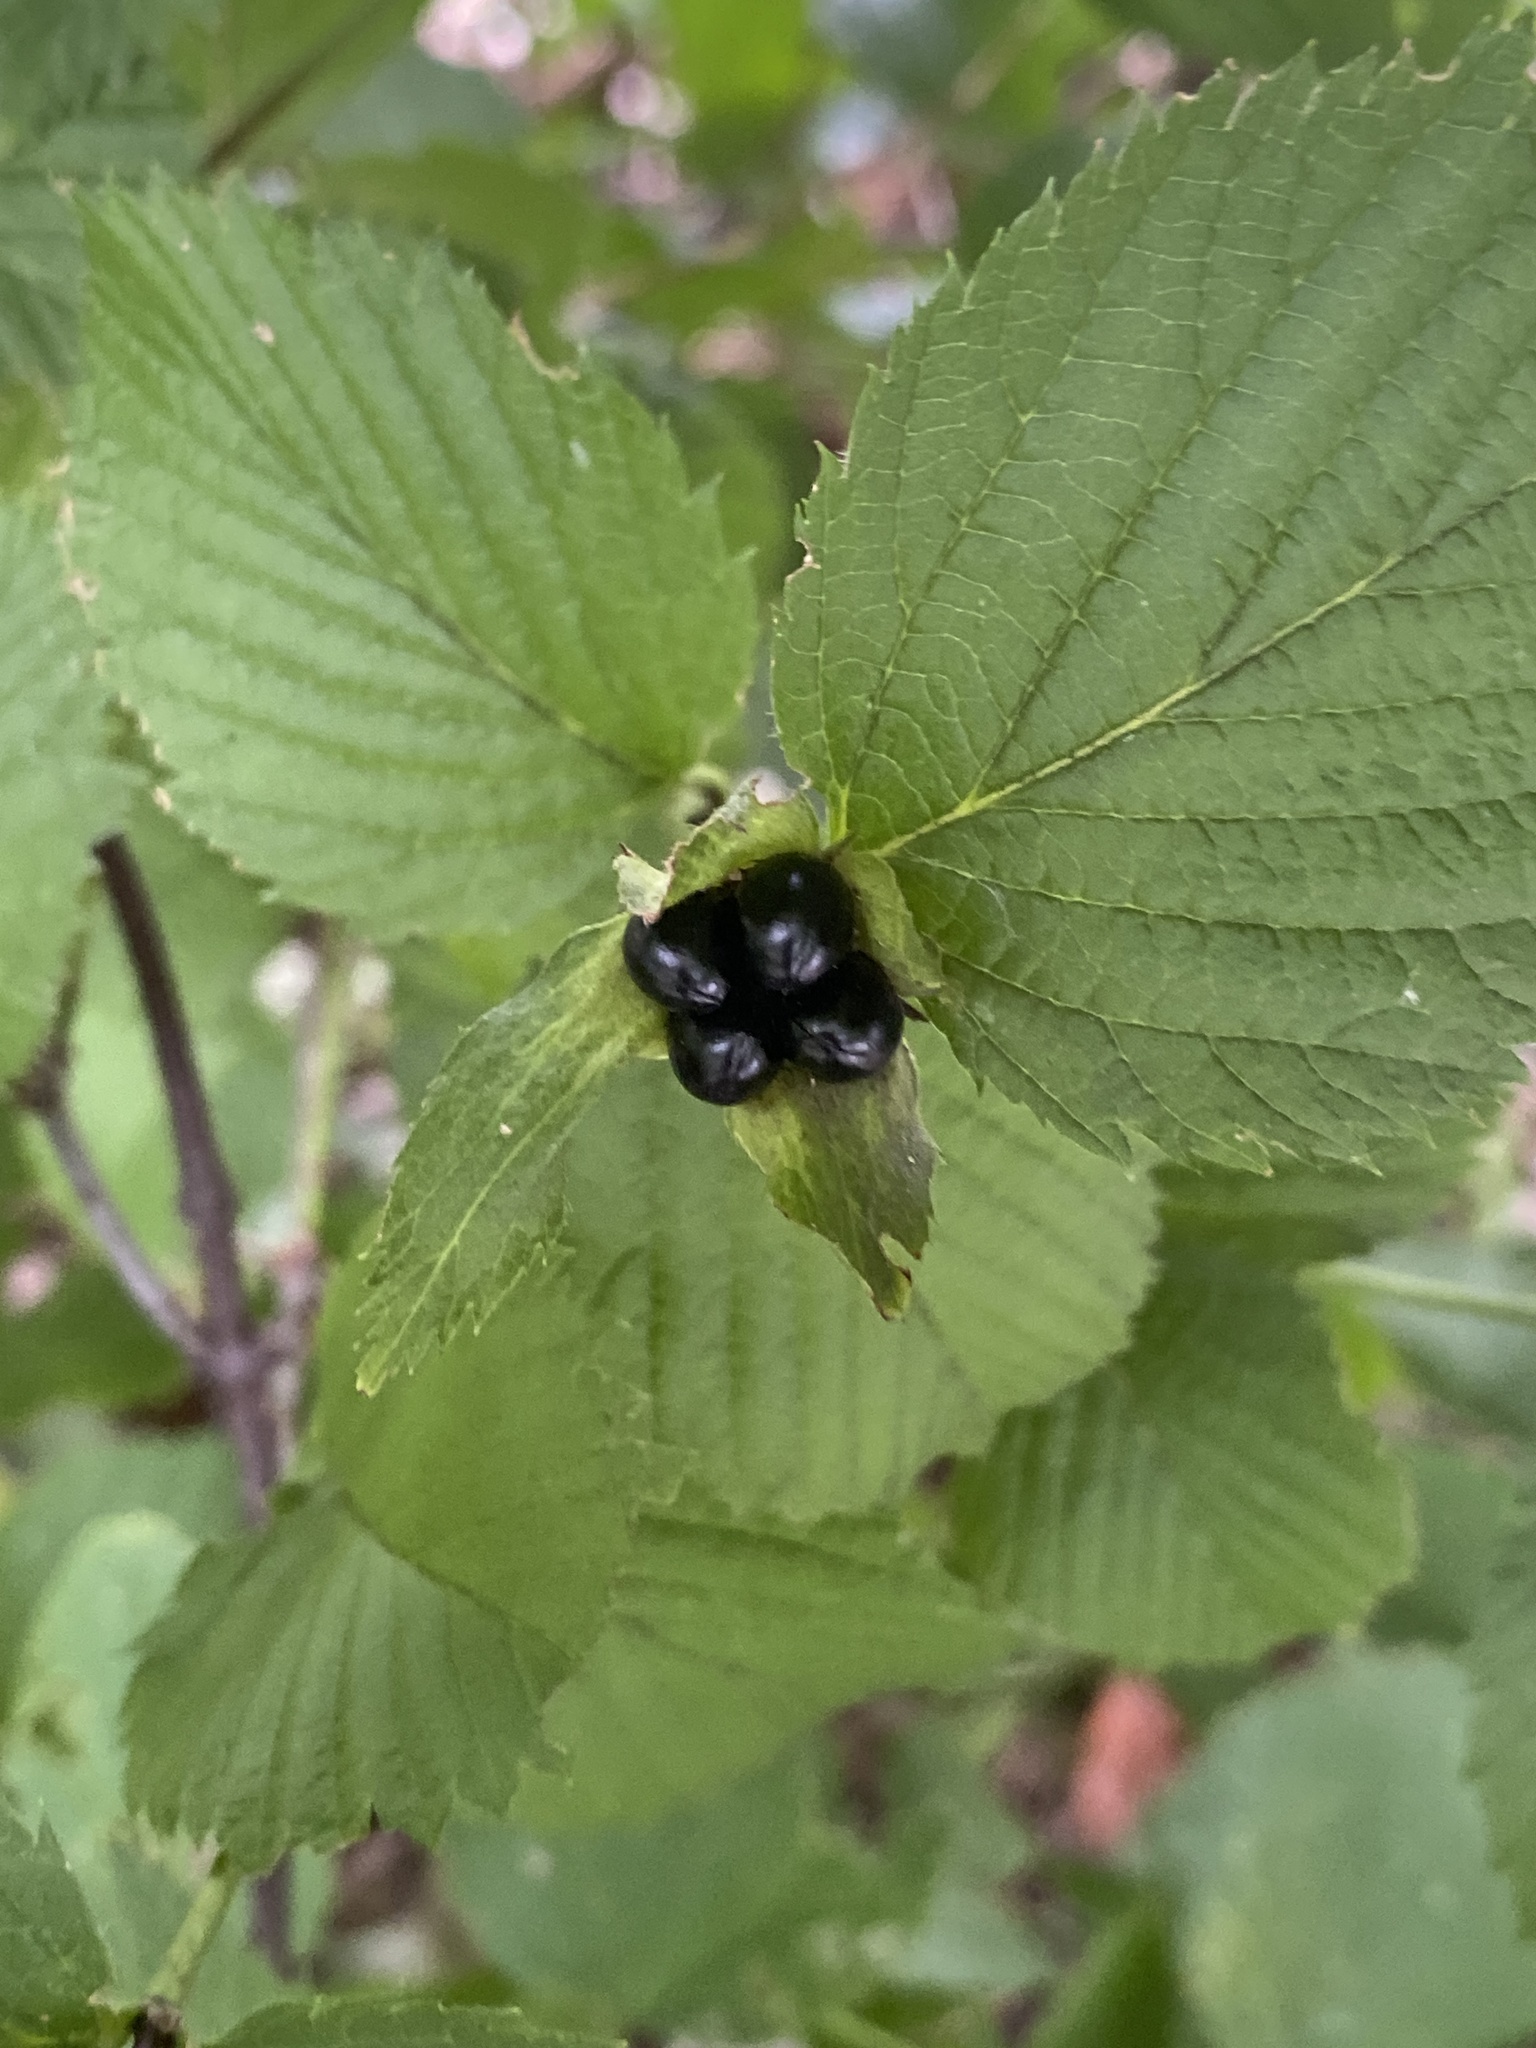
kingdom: Plantae
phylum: Tracheophyta
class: Magnoliopsida
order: Rosales
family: Rosaceae
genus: Rhodotypos
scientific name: Rhodotypos scandens
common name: Jetbead
